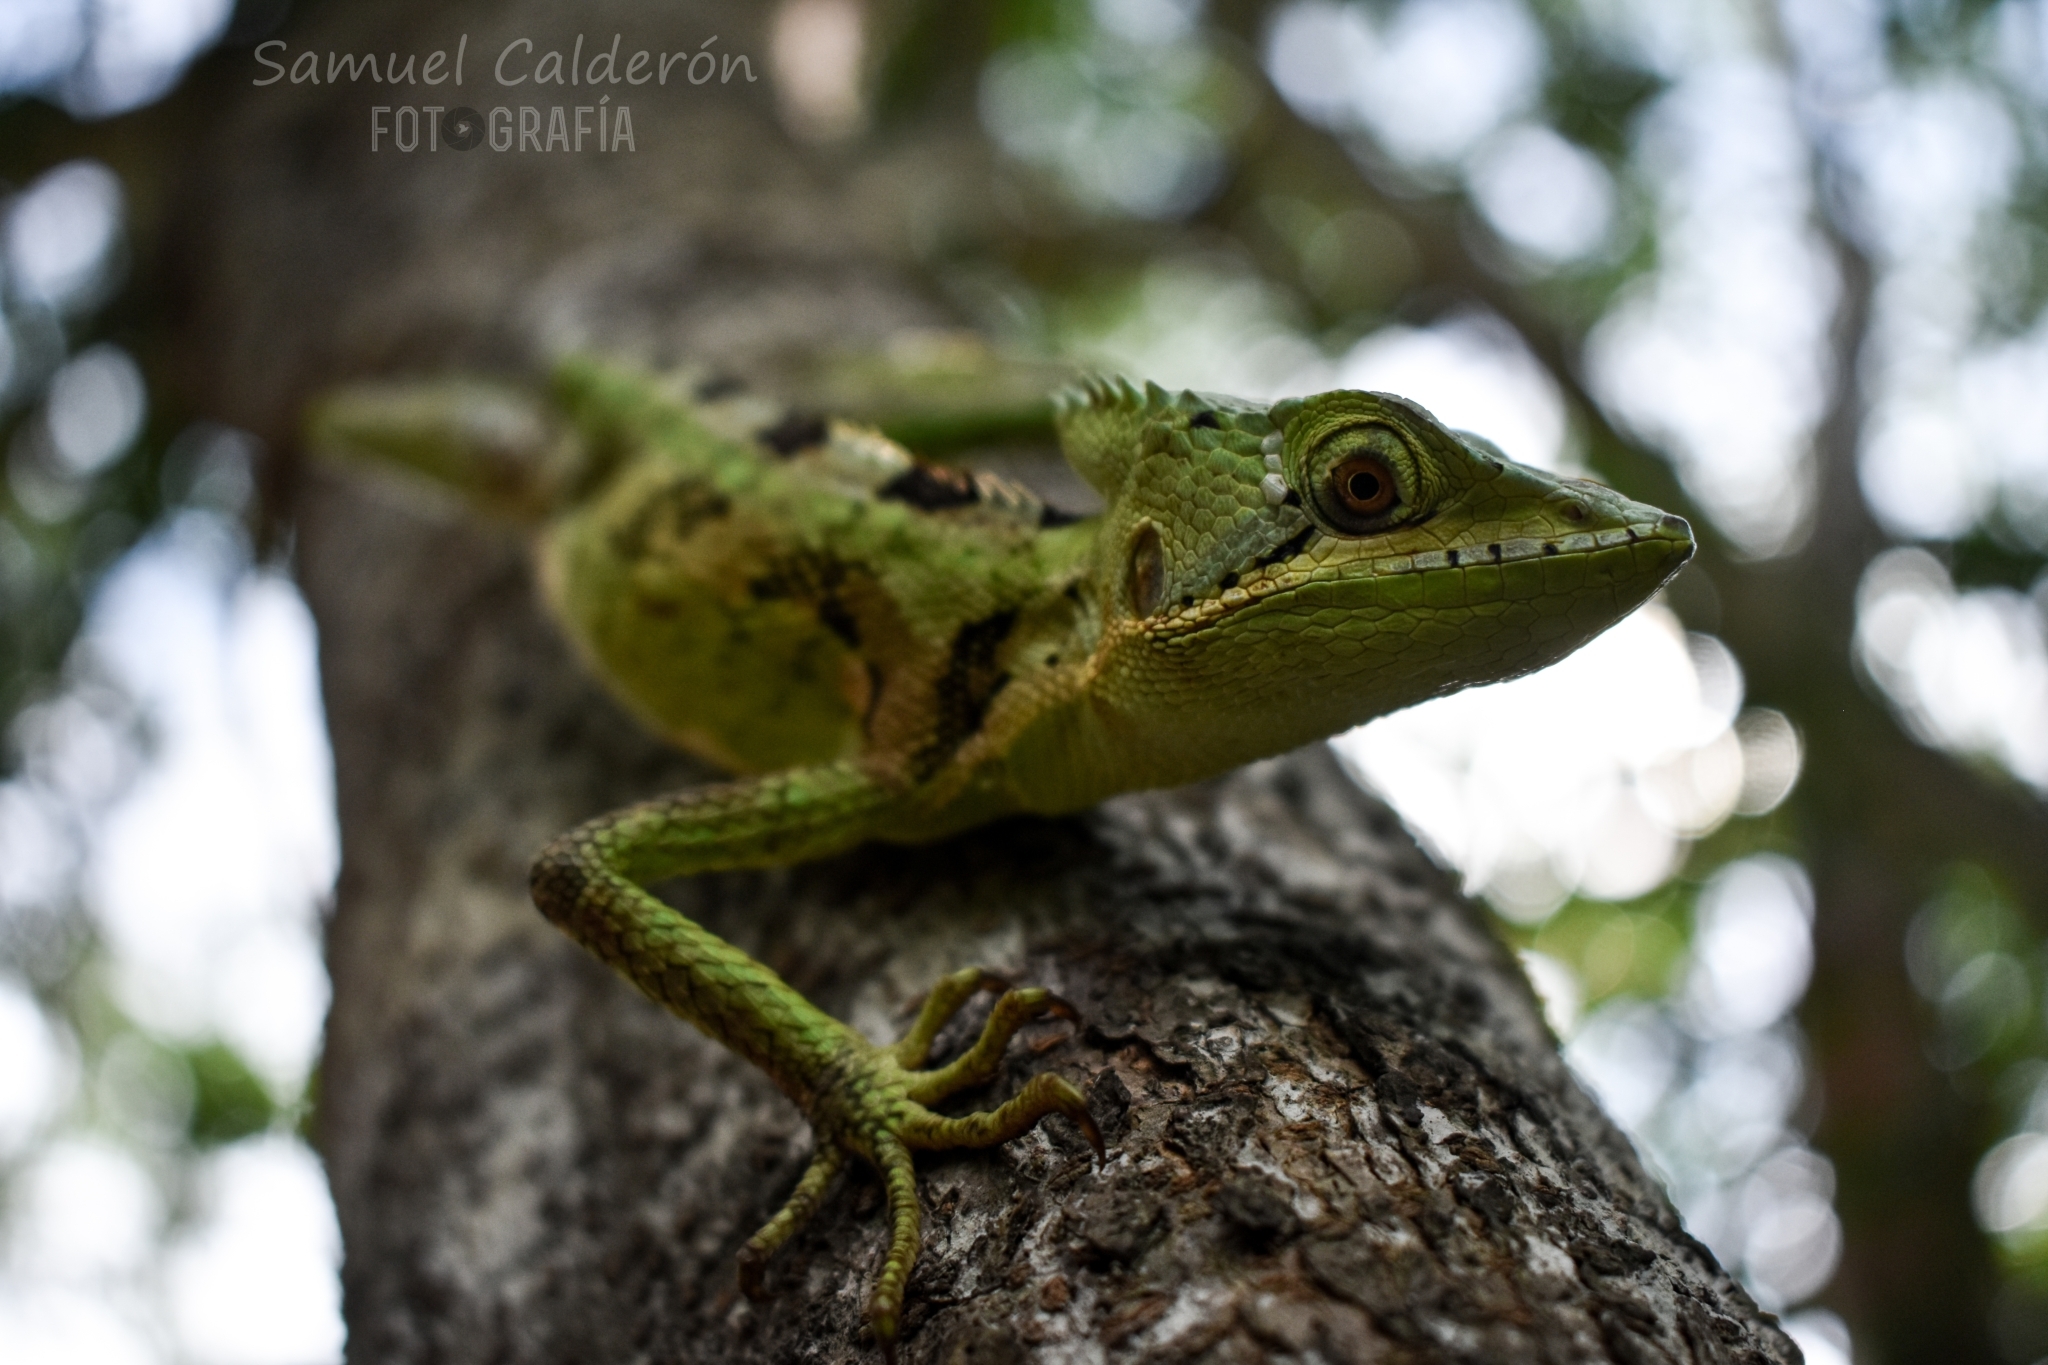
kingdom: Animalia
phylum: Chordata
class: Squamata
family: Corytophanidae
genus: Laemanctus
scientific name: Laemanctus serratus
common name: Serrated casquehead iguana
